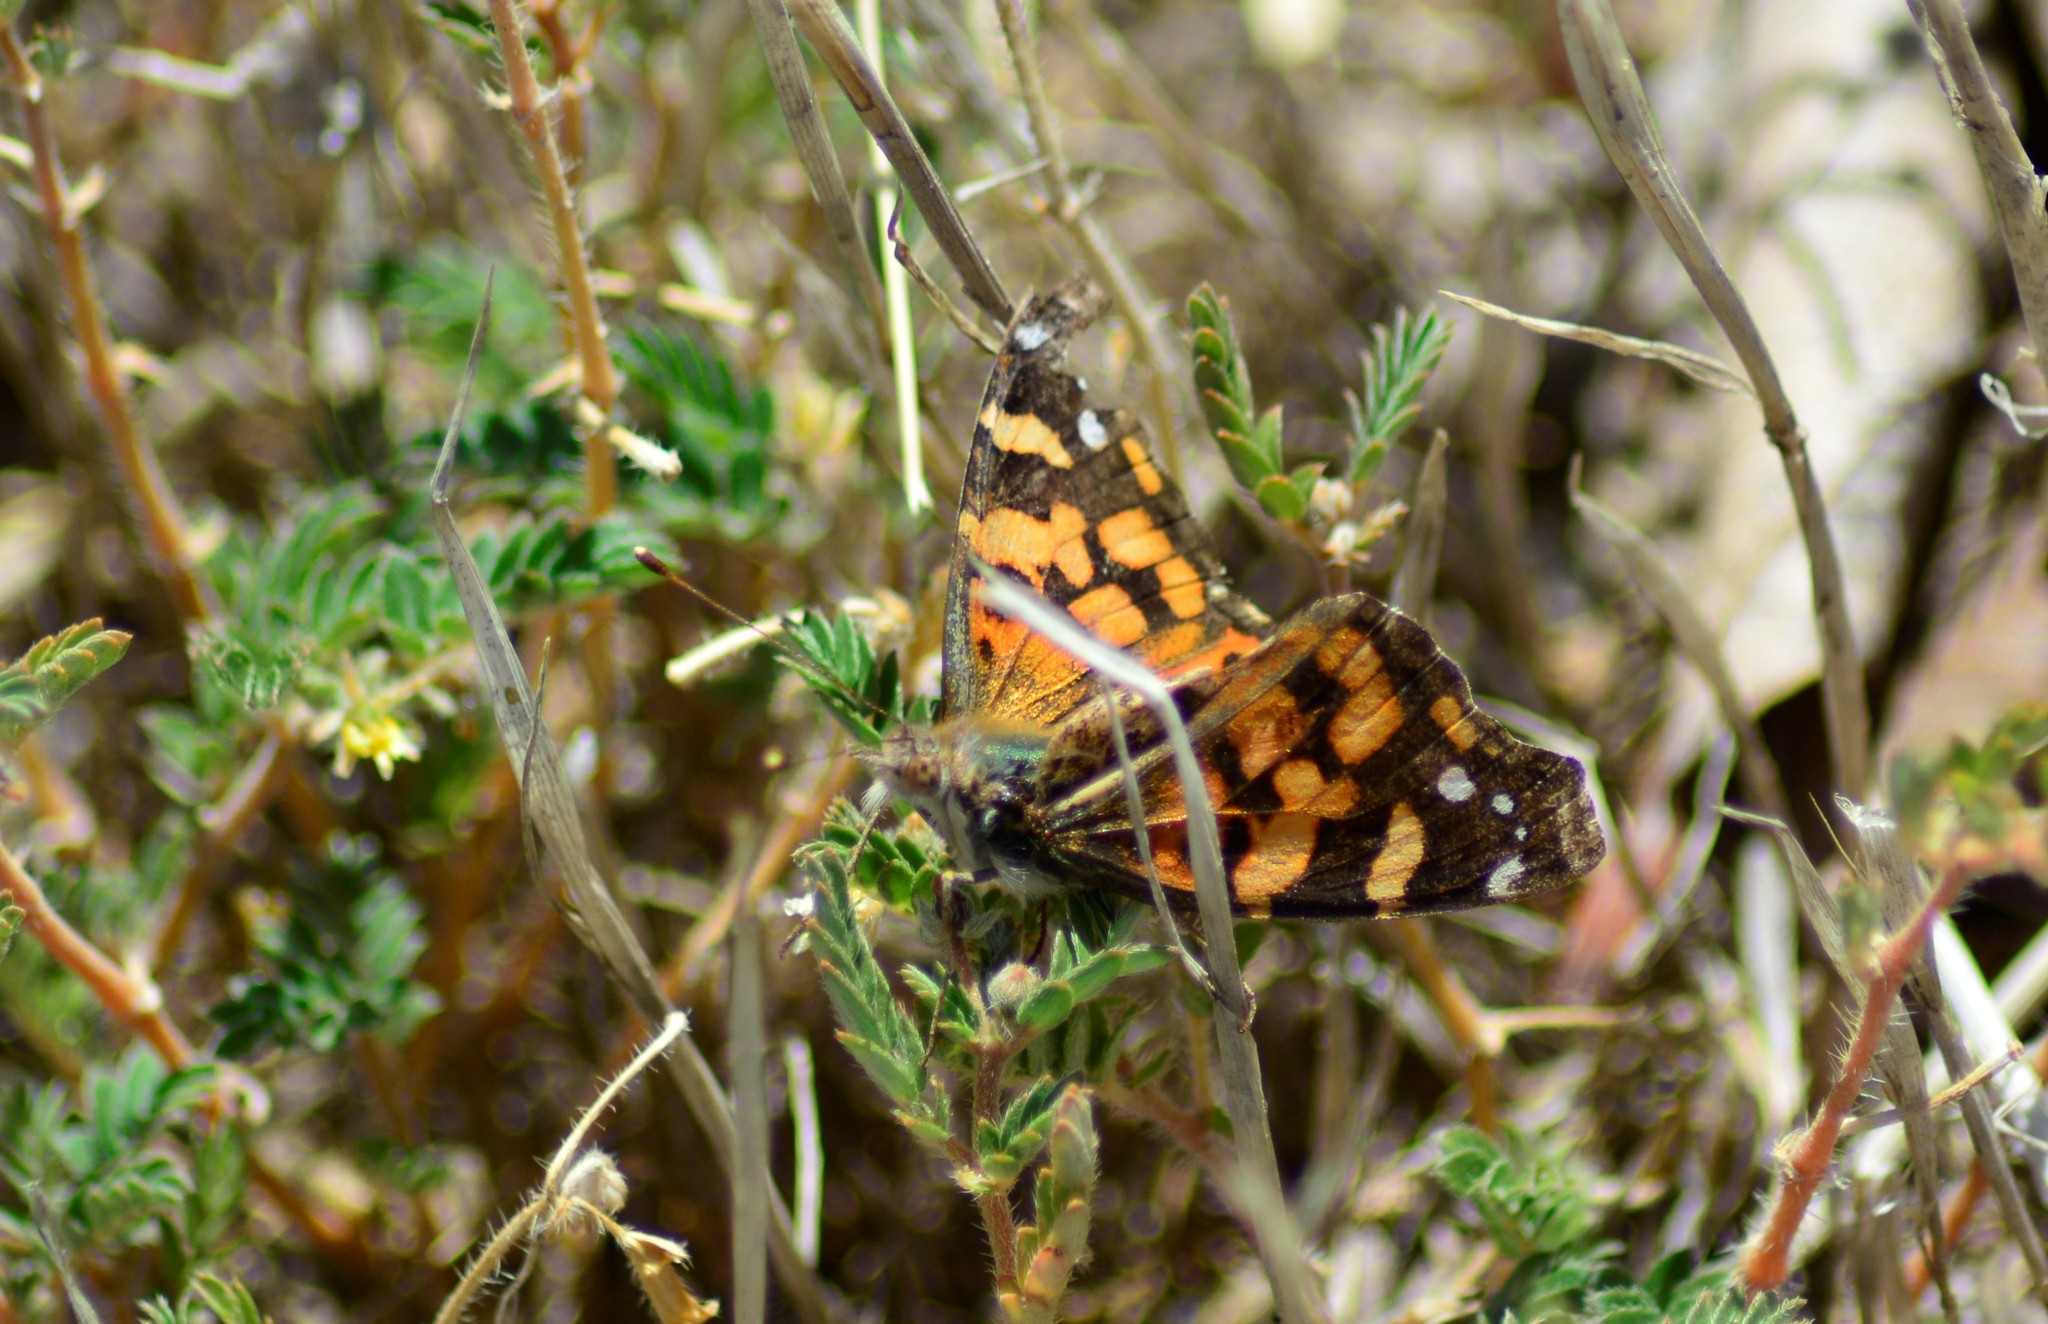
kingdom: Animalia
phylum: Arthropoda
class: Insecta
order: Lepidoptera
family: Nymphalidae
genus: Vanessa
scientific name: Vanessa carye
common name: Subtropical lady
